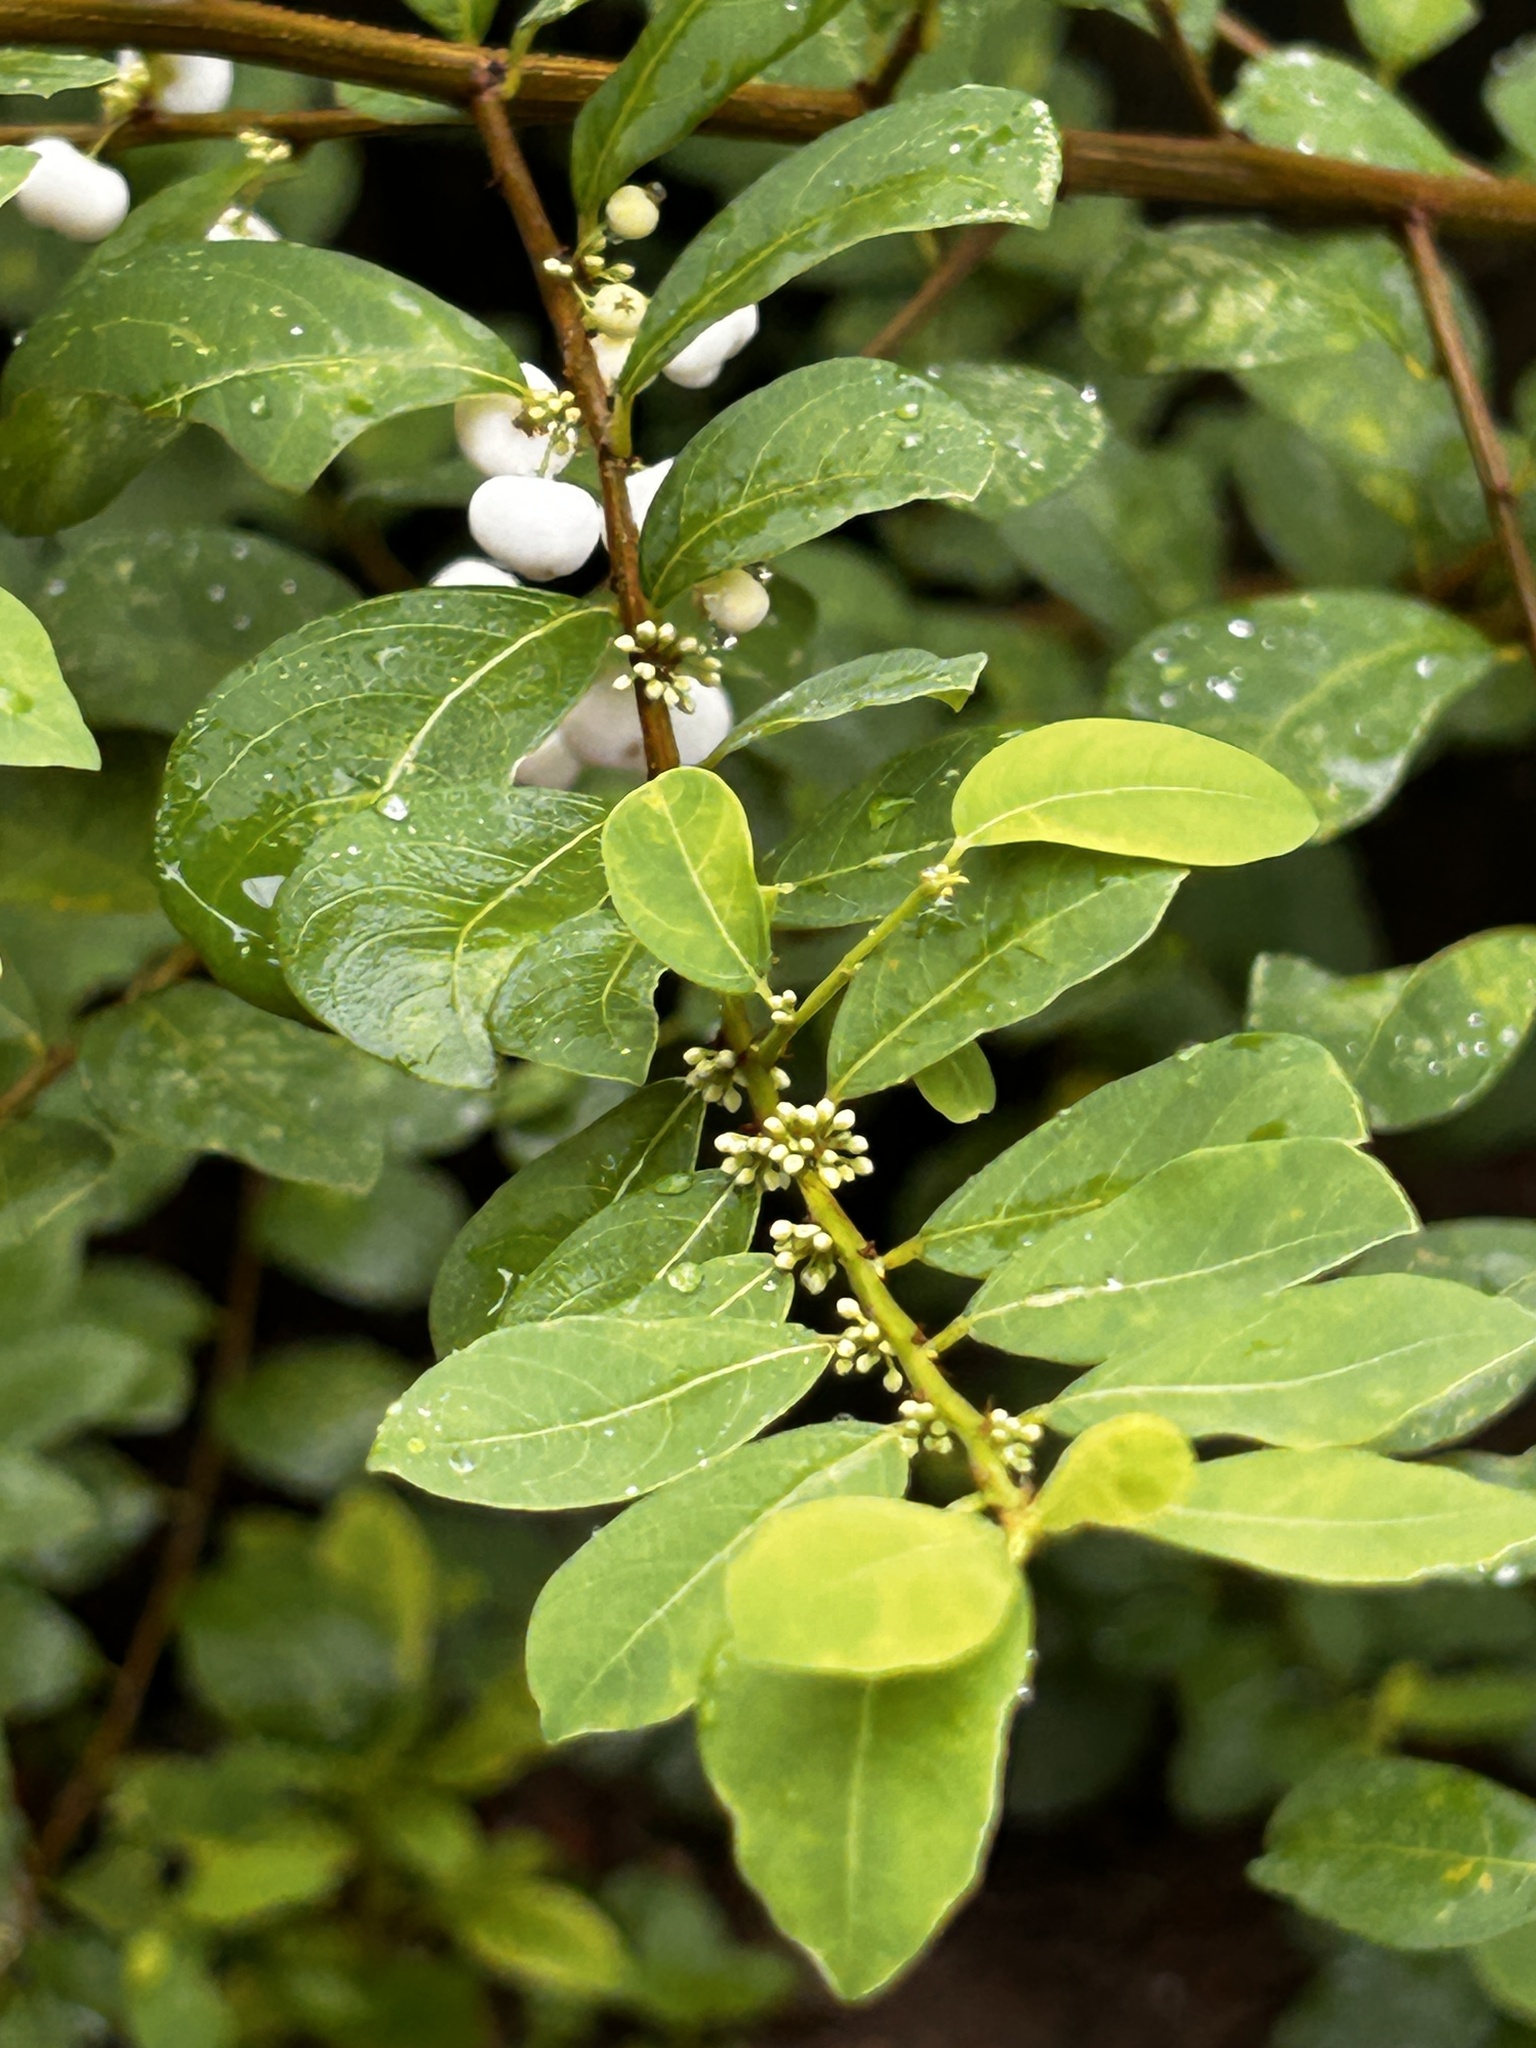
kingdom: Plantae
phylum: Tracheophyta
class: Magnoliopsida
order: Malpighiales
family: Phyllanthaceae
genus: Flueggea
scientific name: Flueggea virosa
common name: Common bushweed
